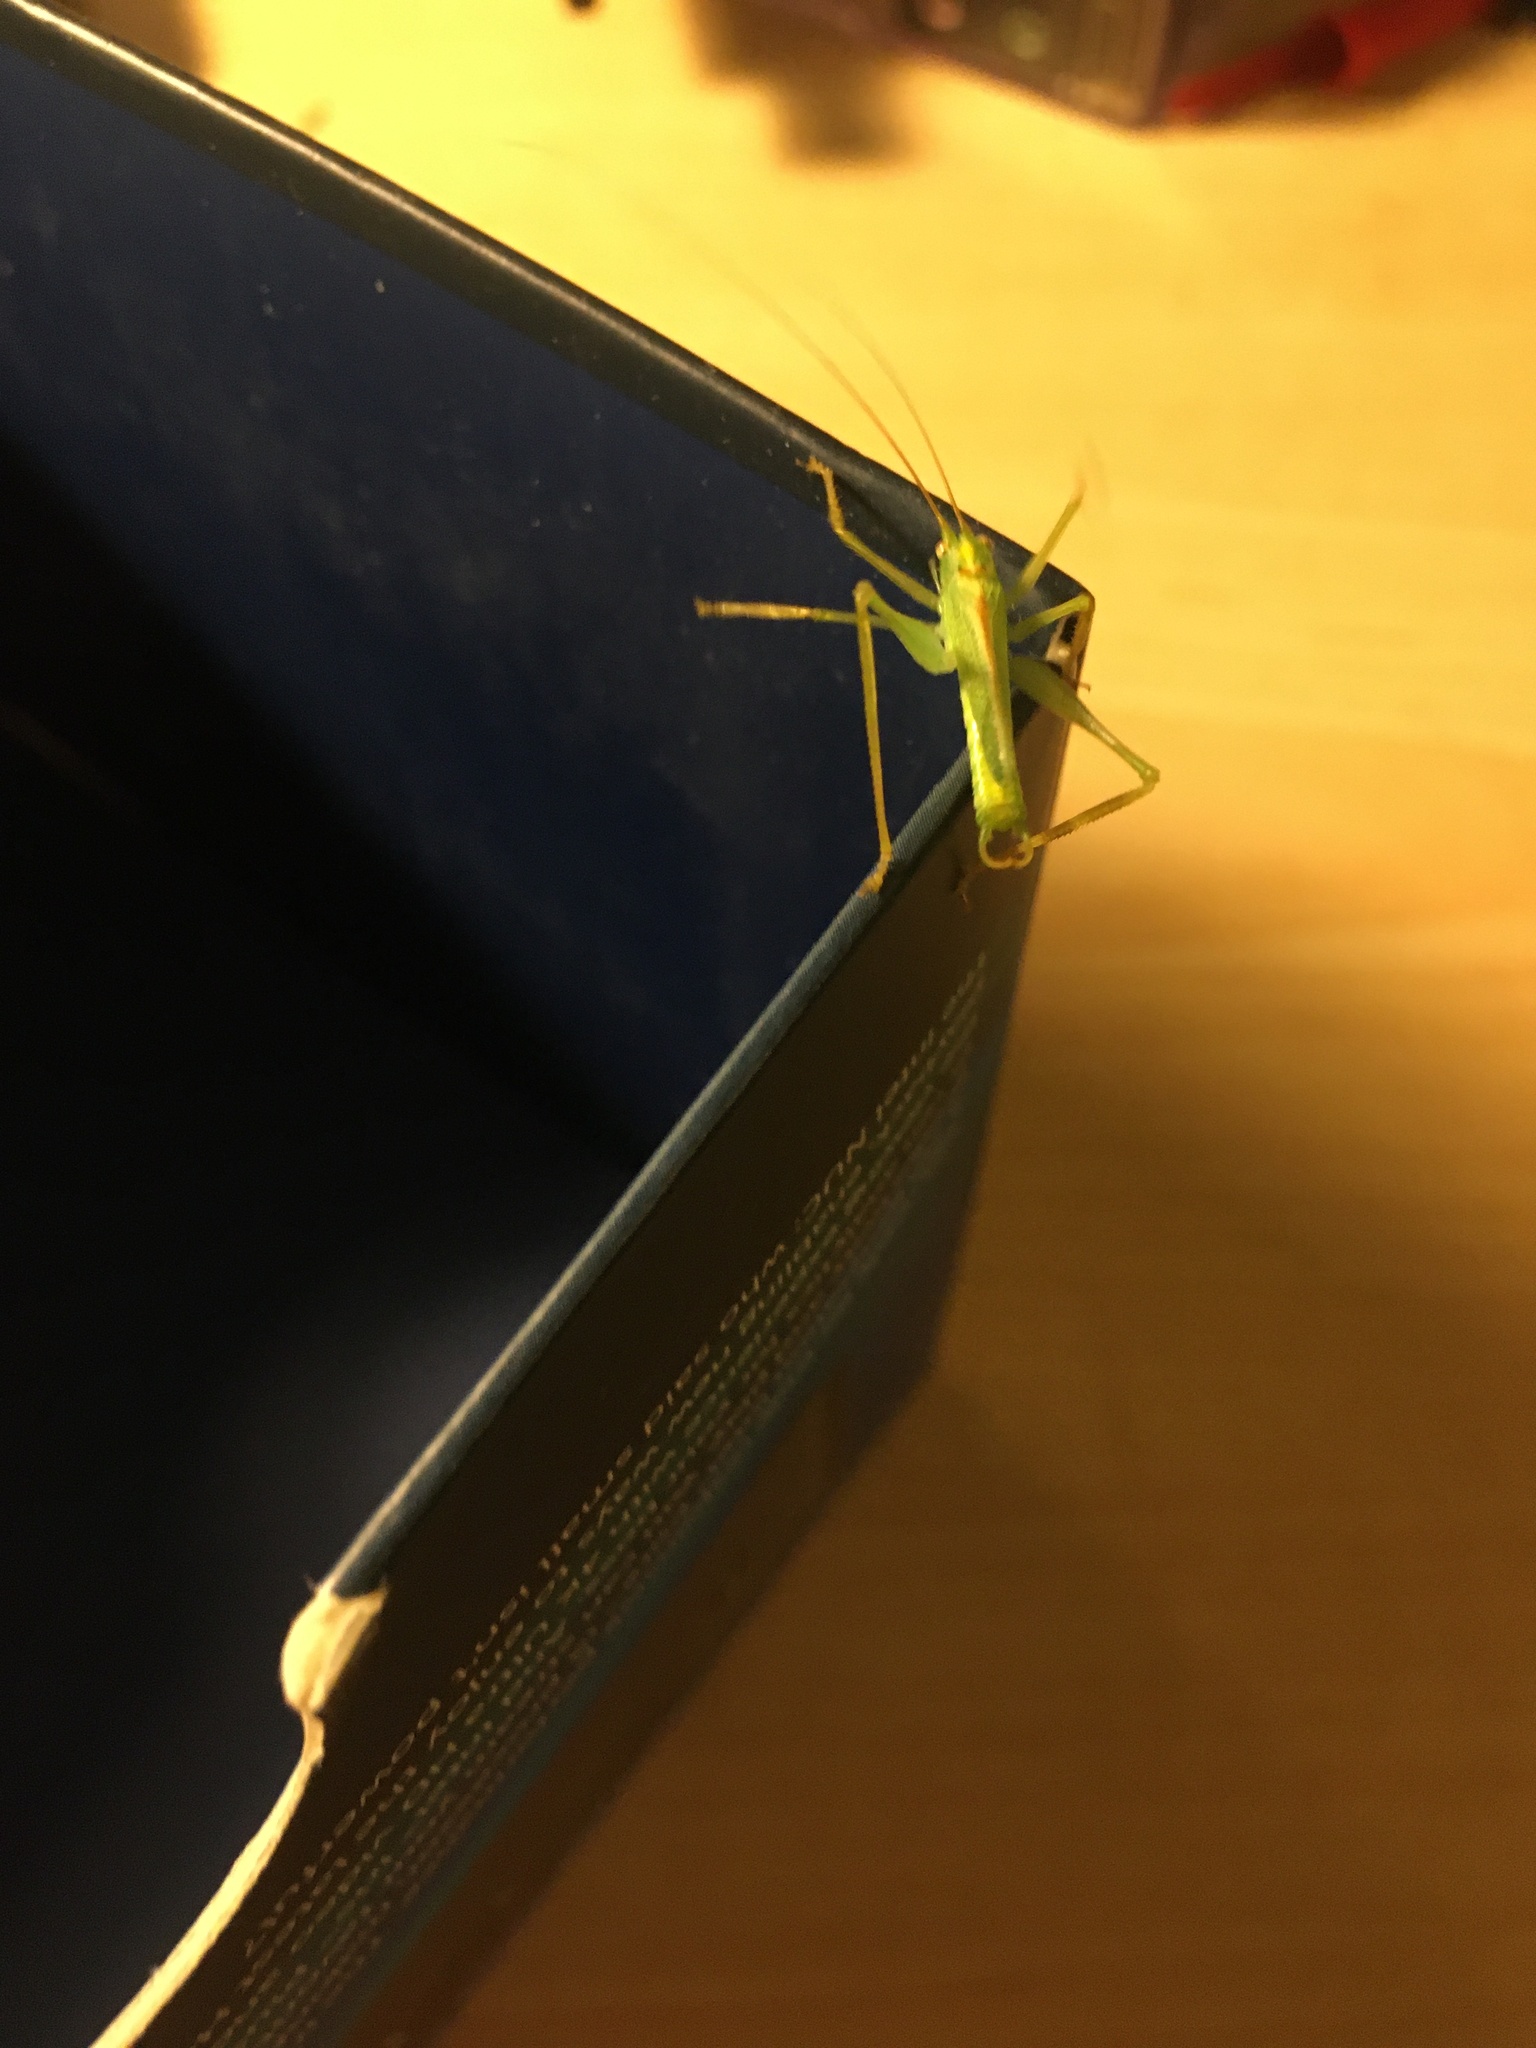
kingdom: Animalia
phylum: Arthropoda
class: Insecta
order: Orthoptera
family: Tettigoniidae
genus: Meconema
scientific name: Meconema thalassinum
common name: Oak bush-cricket
